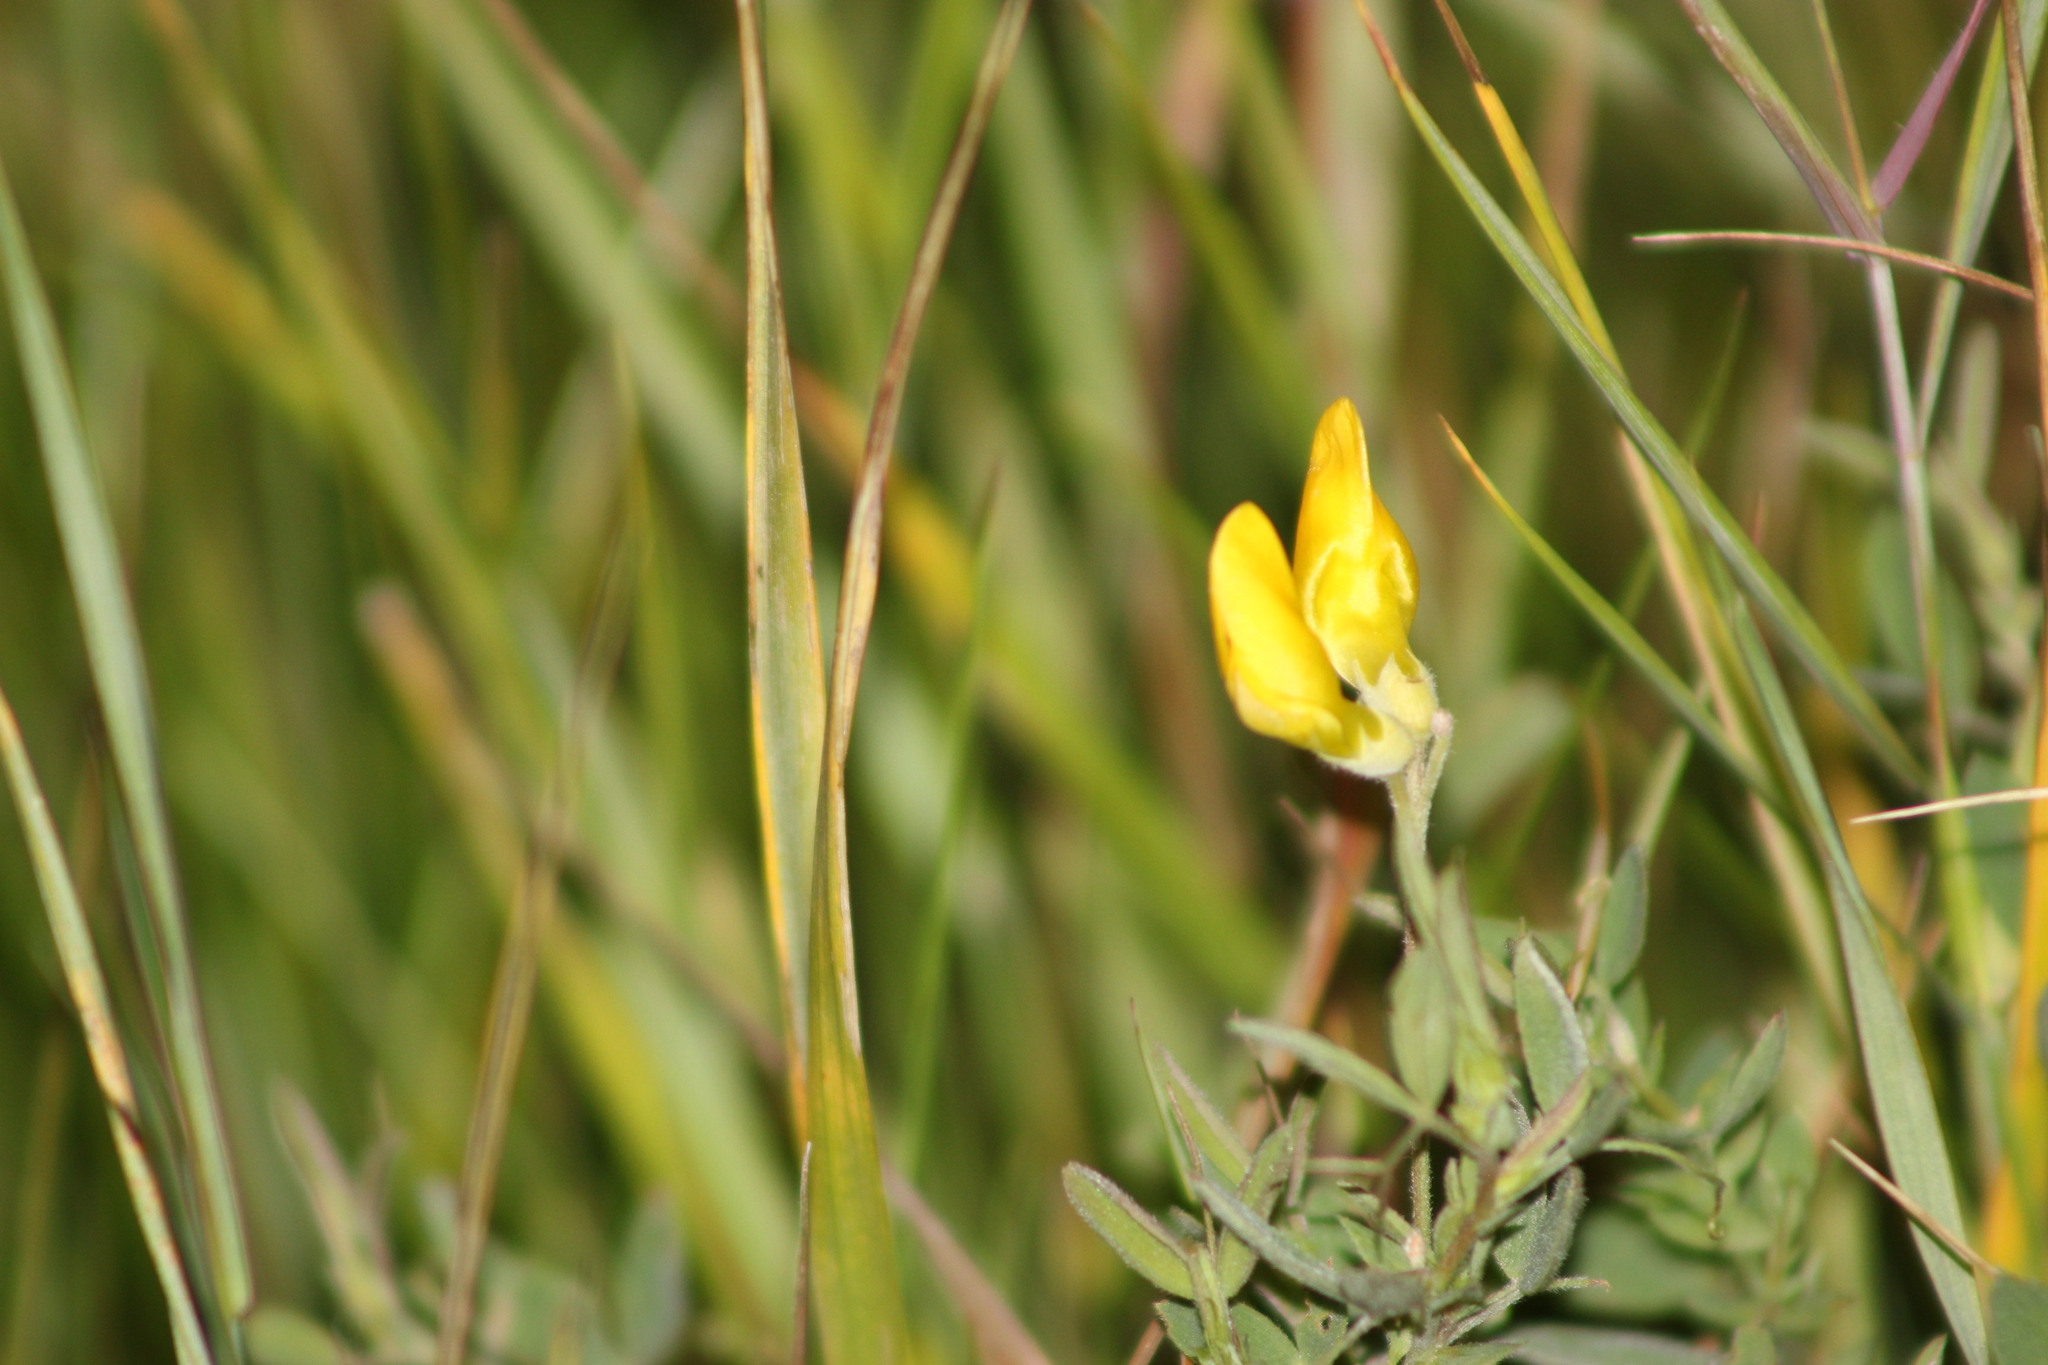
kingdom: Plantae
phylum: Tracheophyta
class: Magnoliopsida
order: Fabales
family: Fabaceae
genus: Lathyrus
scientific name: Lathyrus pratensis
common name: Meadow vetchling
